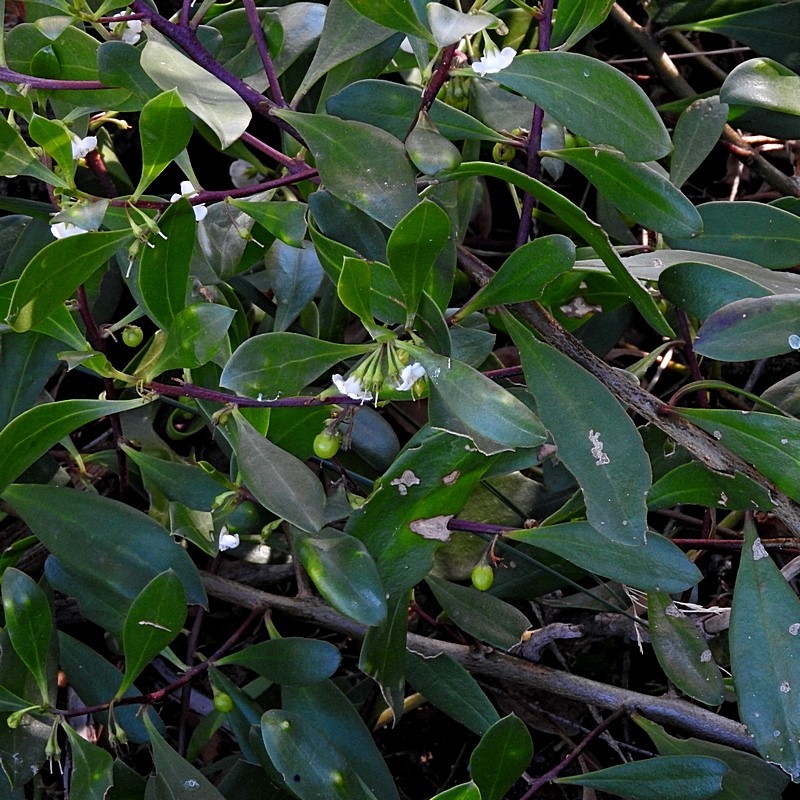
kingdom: Plantae
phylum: Tracheophyta
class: Magnoliopsida
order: Lamiales
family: Scrophulariaceae
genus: Myoporum
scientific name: Myoporum boninense
